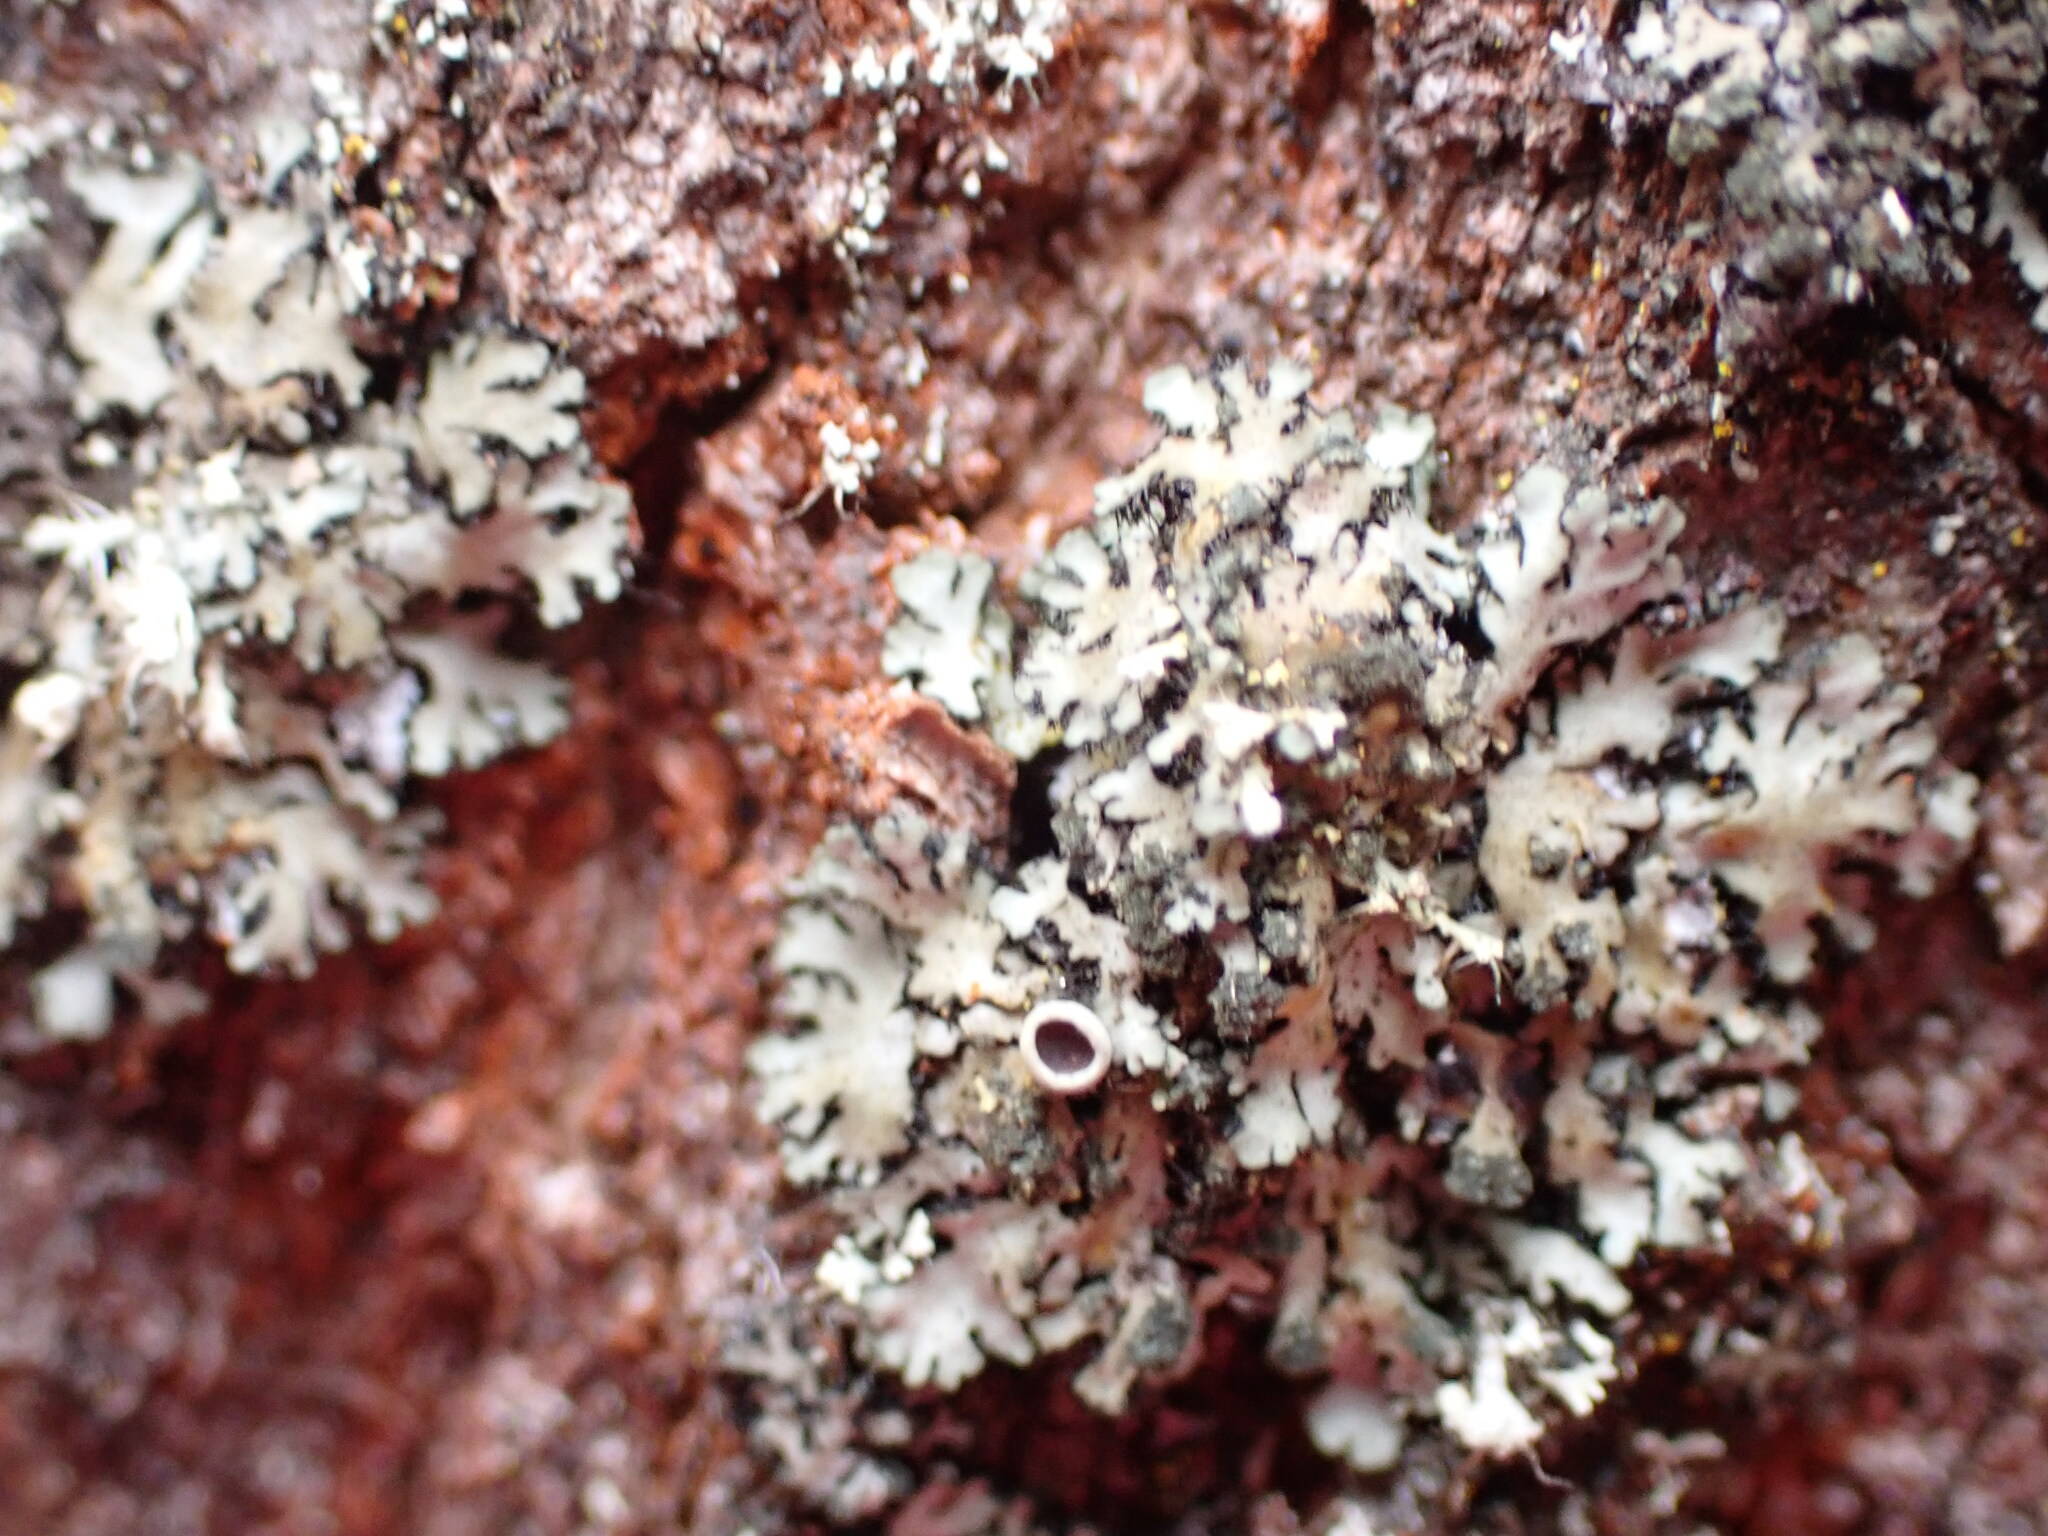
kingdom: Fungi
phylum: Ascomycota
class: Lecanoromycetes
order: Caliciales
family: Physciaceae
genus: Phaeophyscia
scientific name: Phaeophyscia orbicularis
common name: Mealy shadow lichen
